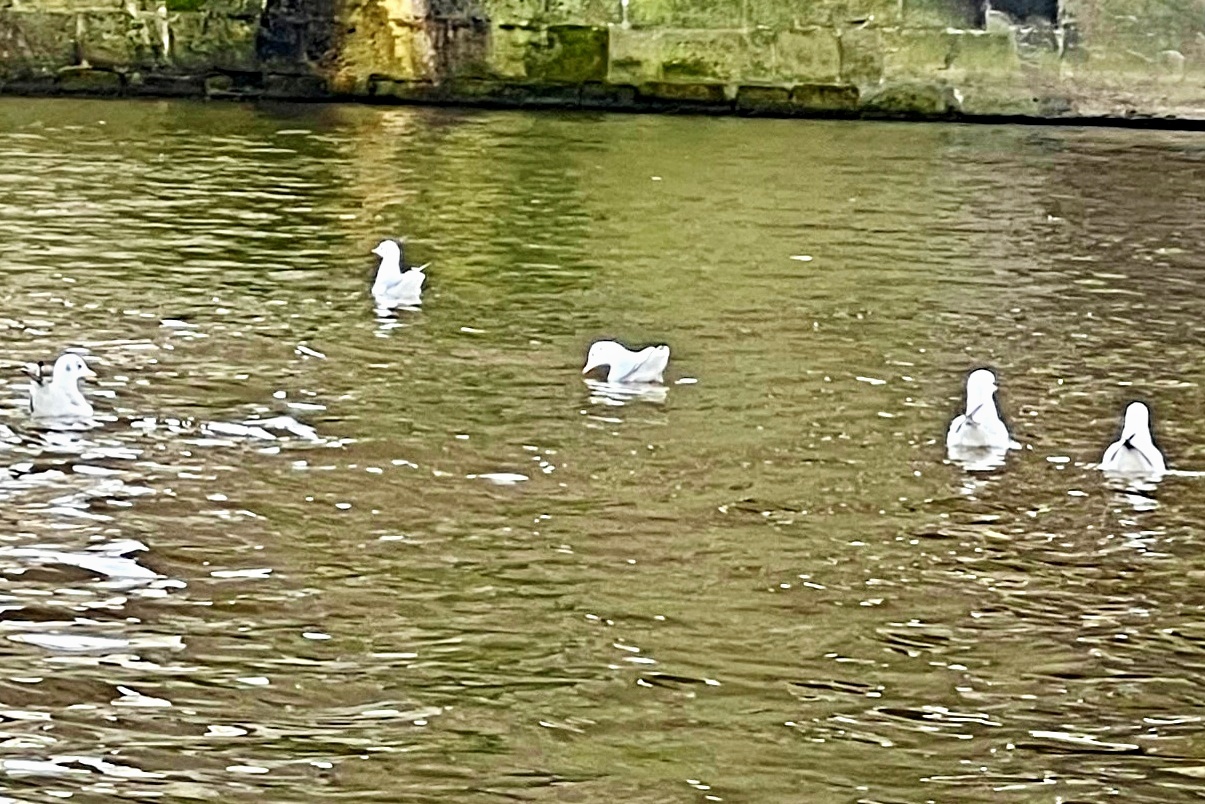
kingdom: Animalia
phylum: Chordata
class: Aves
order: Charadriiformes
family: Laridae
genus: Chroicocephalus
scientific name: Chroicocephalus ridibundus
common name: Black-headed gull
